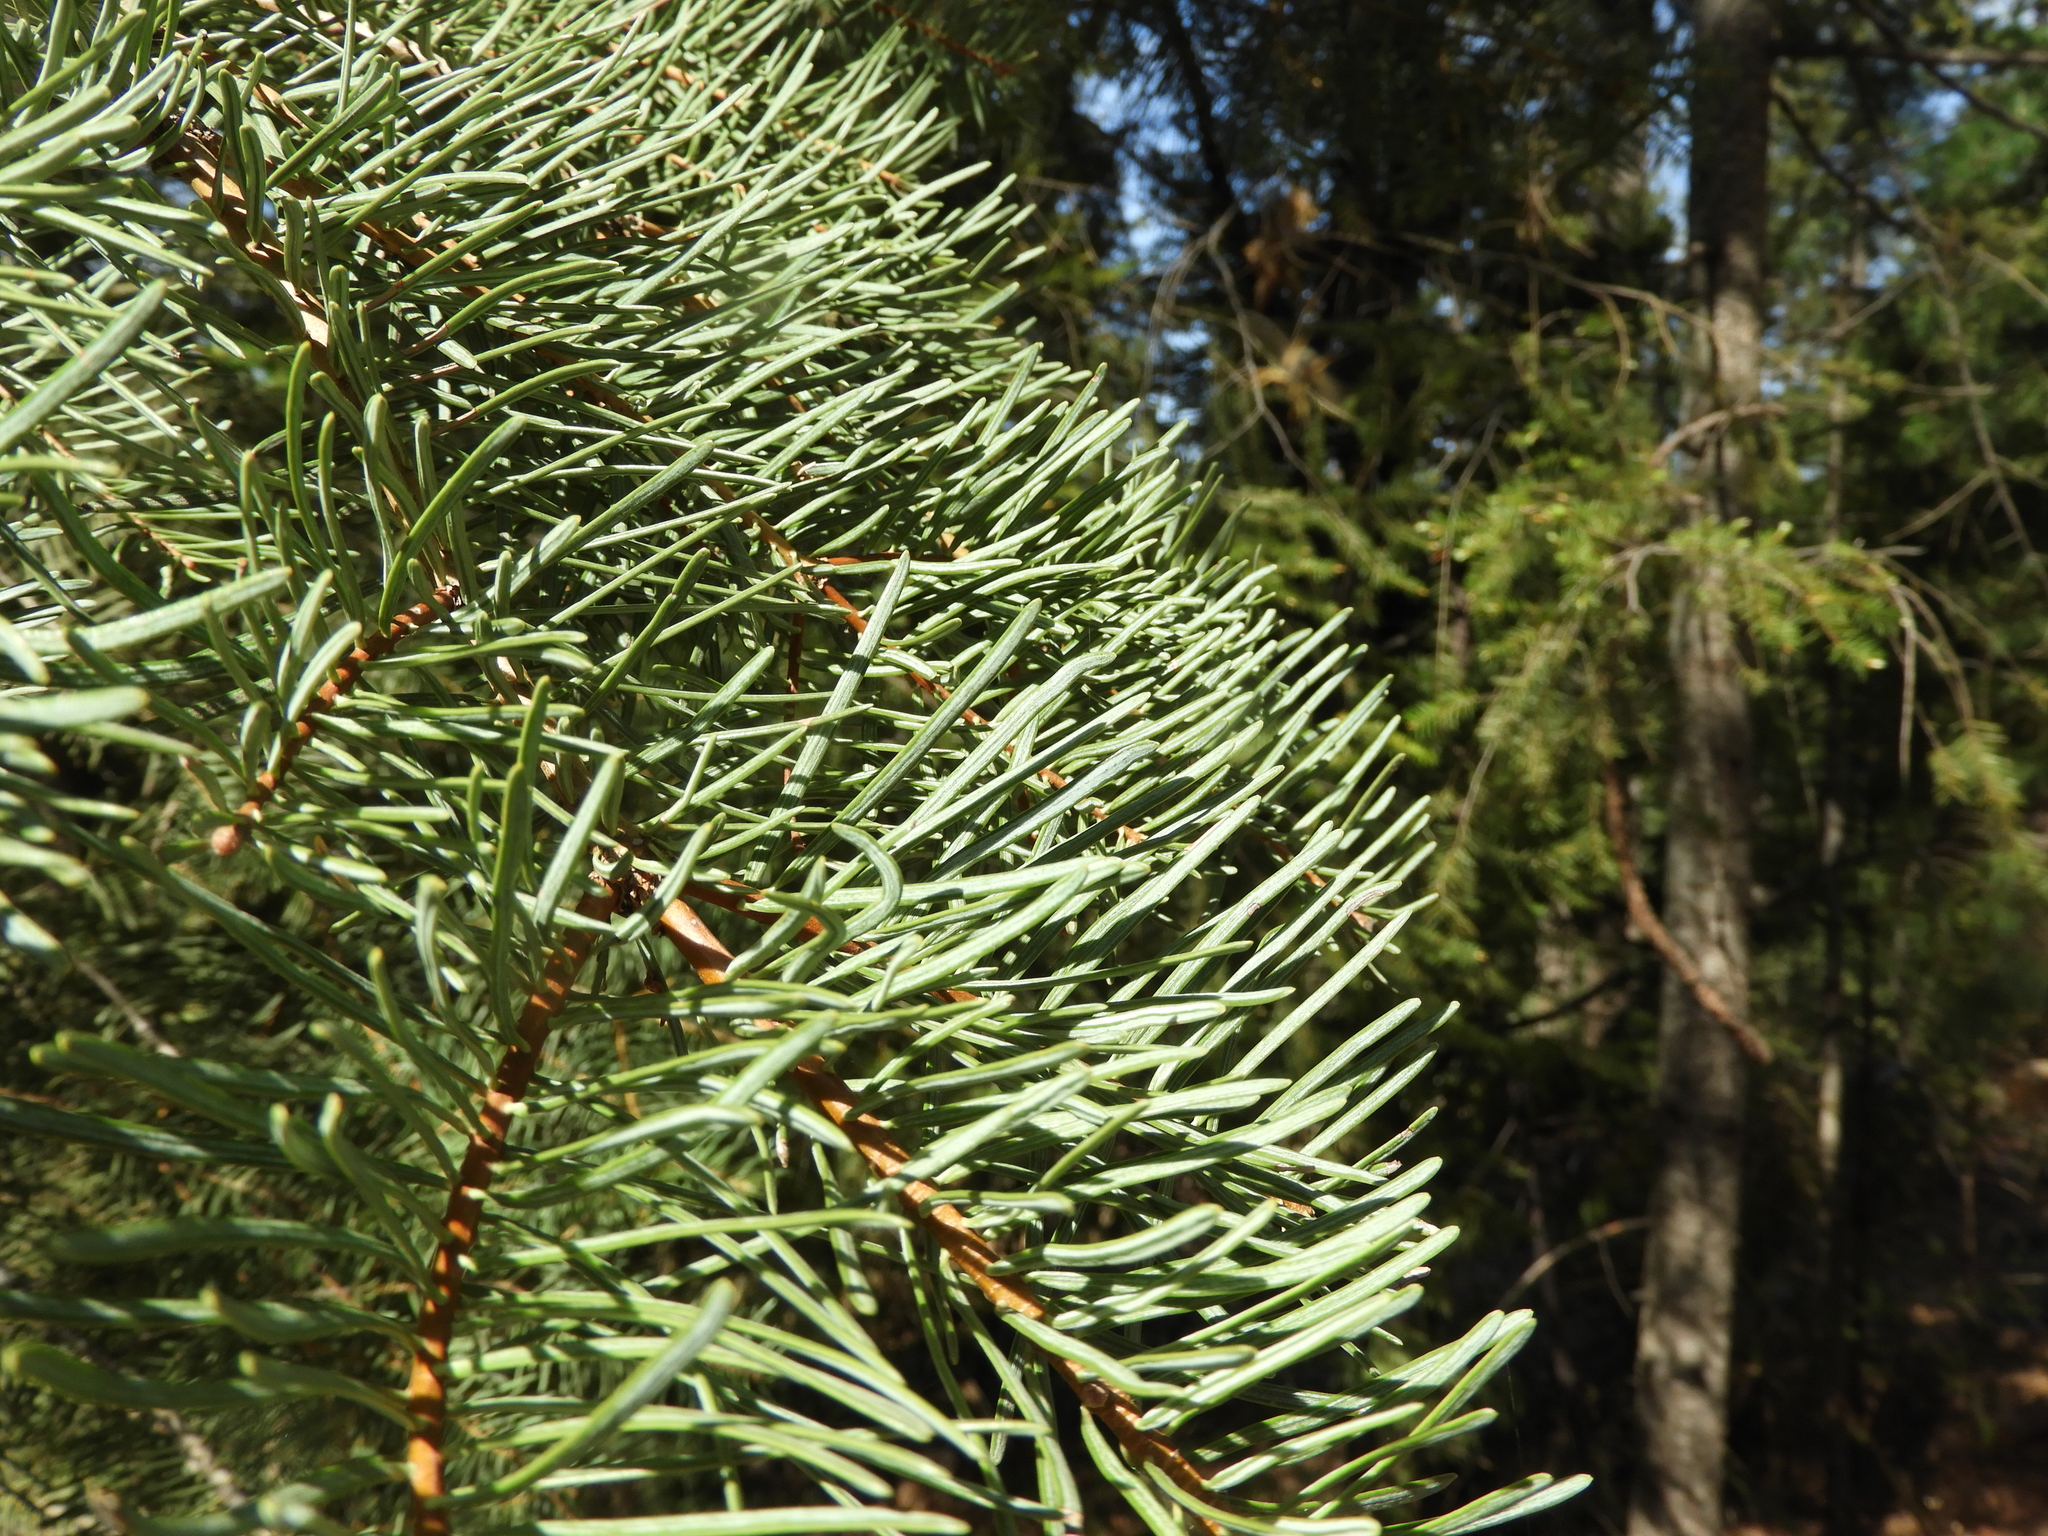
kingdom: Plantae
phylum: Tracheophyta
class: Pinopsida
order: Pinales
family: Pinaceae
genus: Abies
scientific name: Abies concolor
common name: Colorado fir
